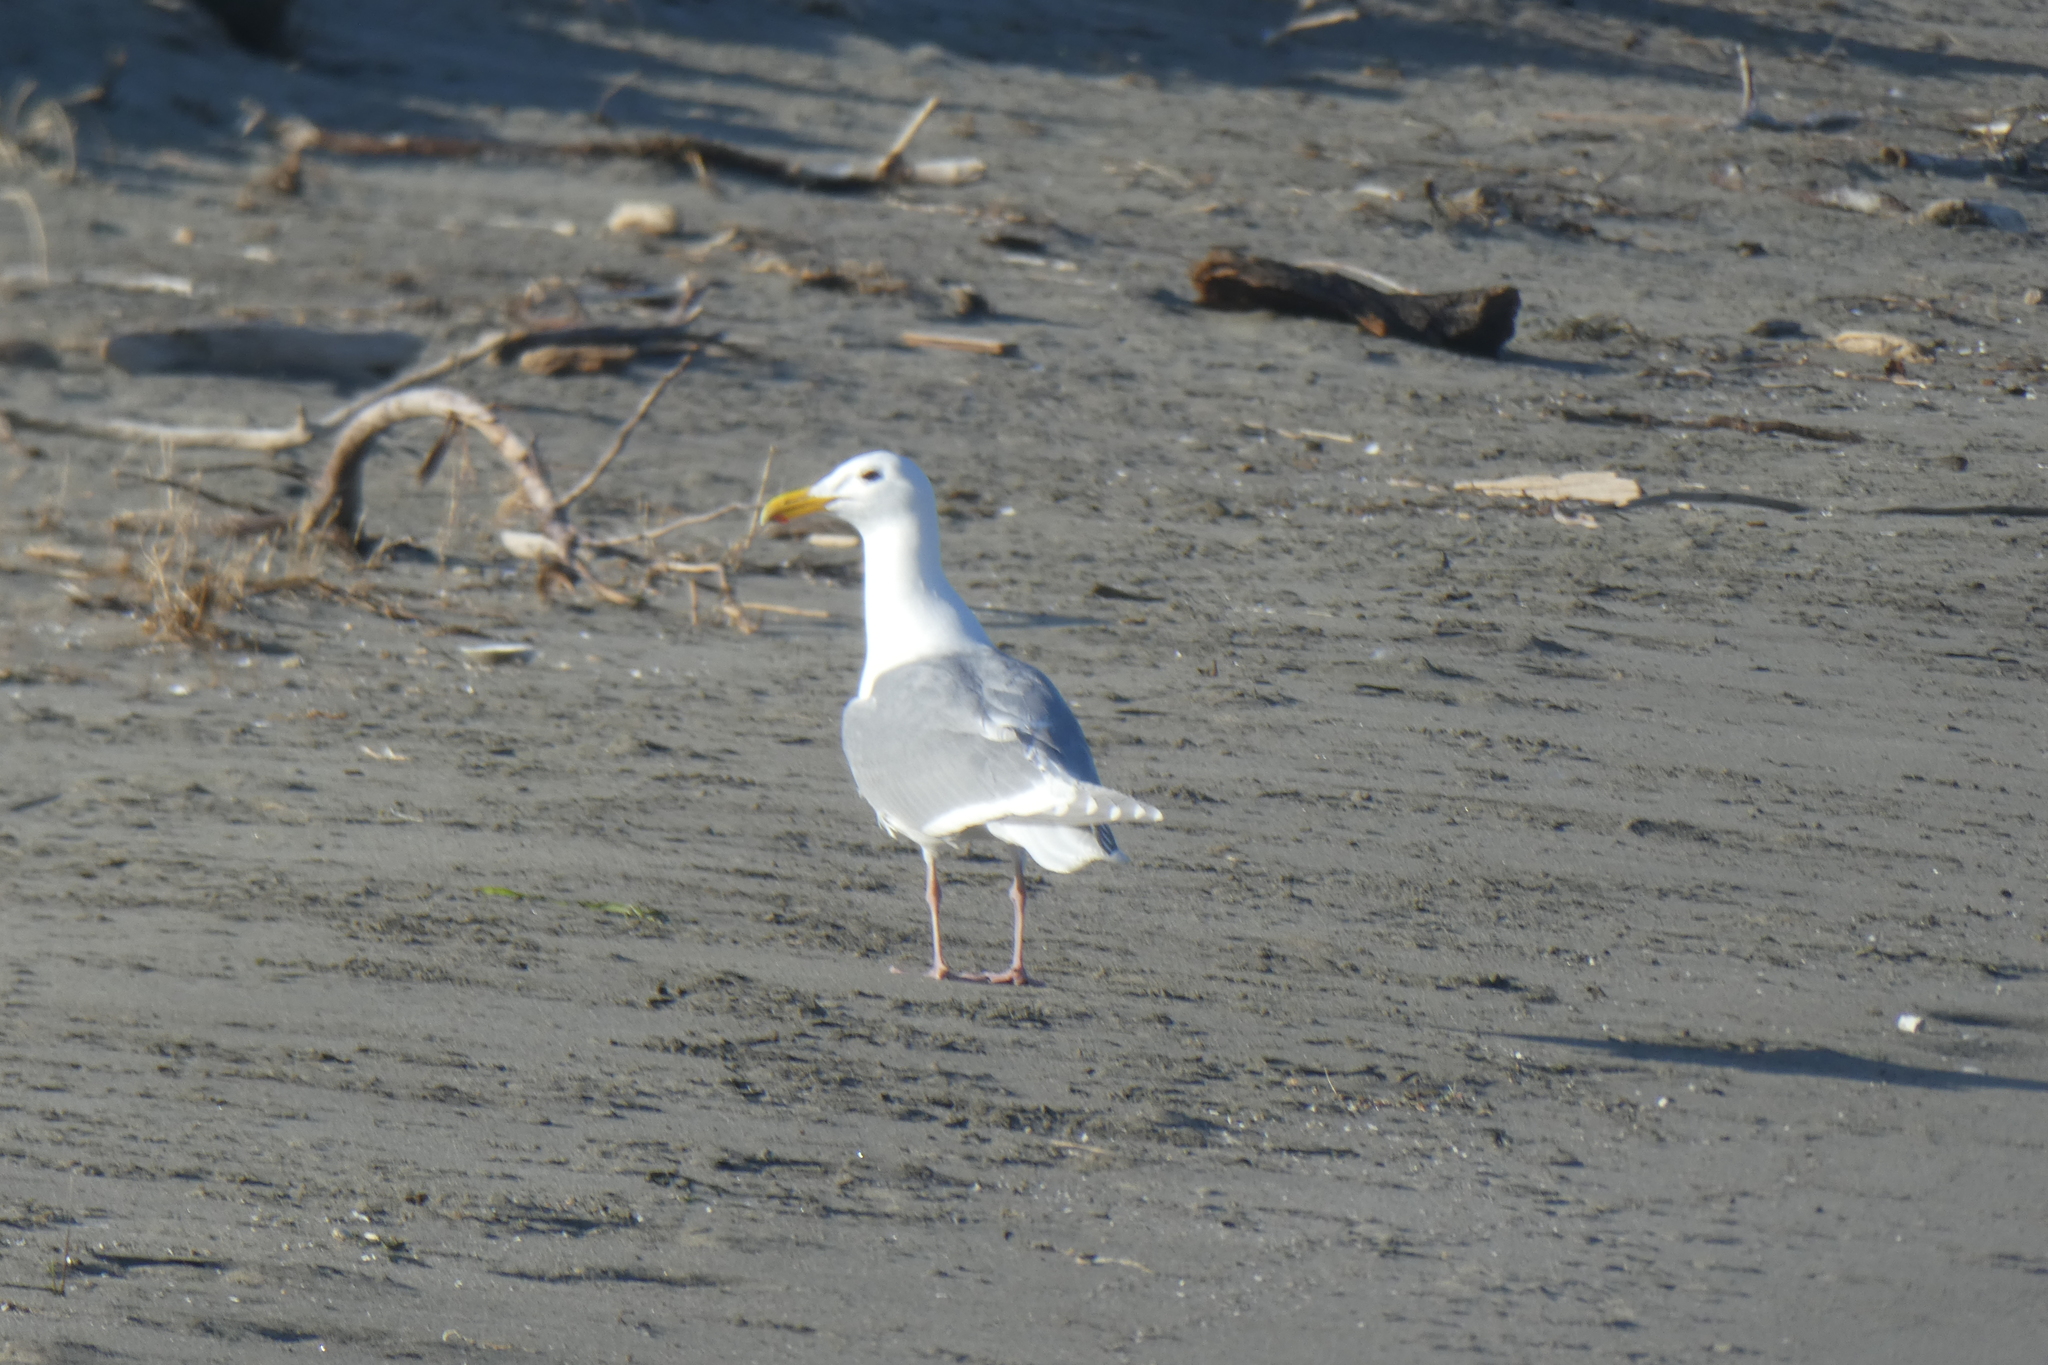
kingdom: Animalia
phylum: Chordata
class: Aves
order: Charadriiformes
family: Laridae
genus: Larus
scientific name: Larus glaucescens
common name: Glaucous-winged gull
